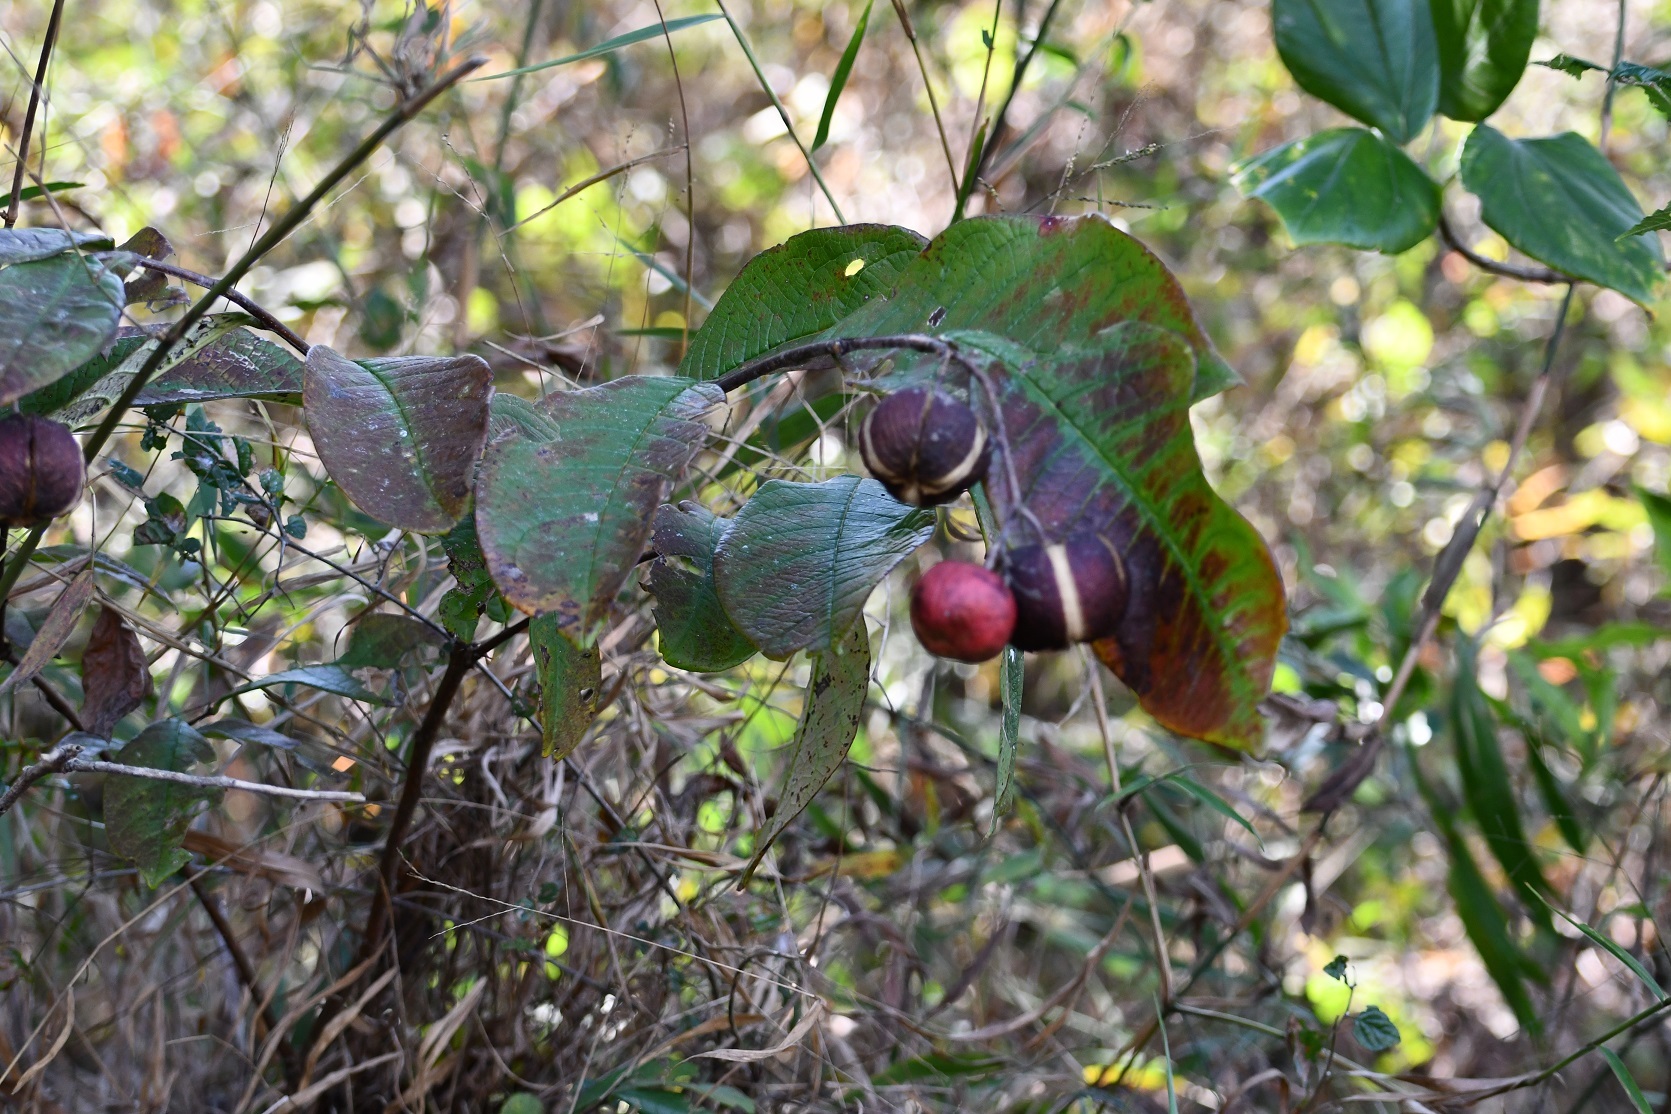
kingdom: Plantae
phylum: Tracheophyta
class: Magnoliopsida
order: Malpighiales
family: Phyllanthaceae
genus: Phyllanthus
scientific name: Phyllanthus grandifolius
